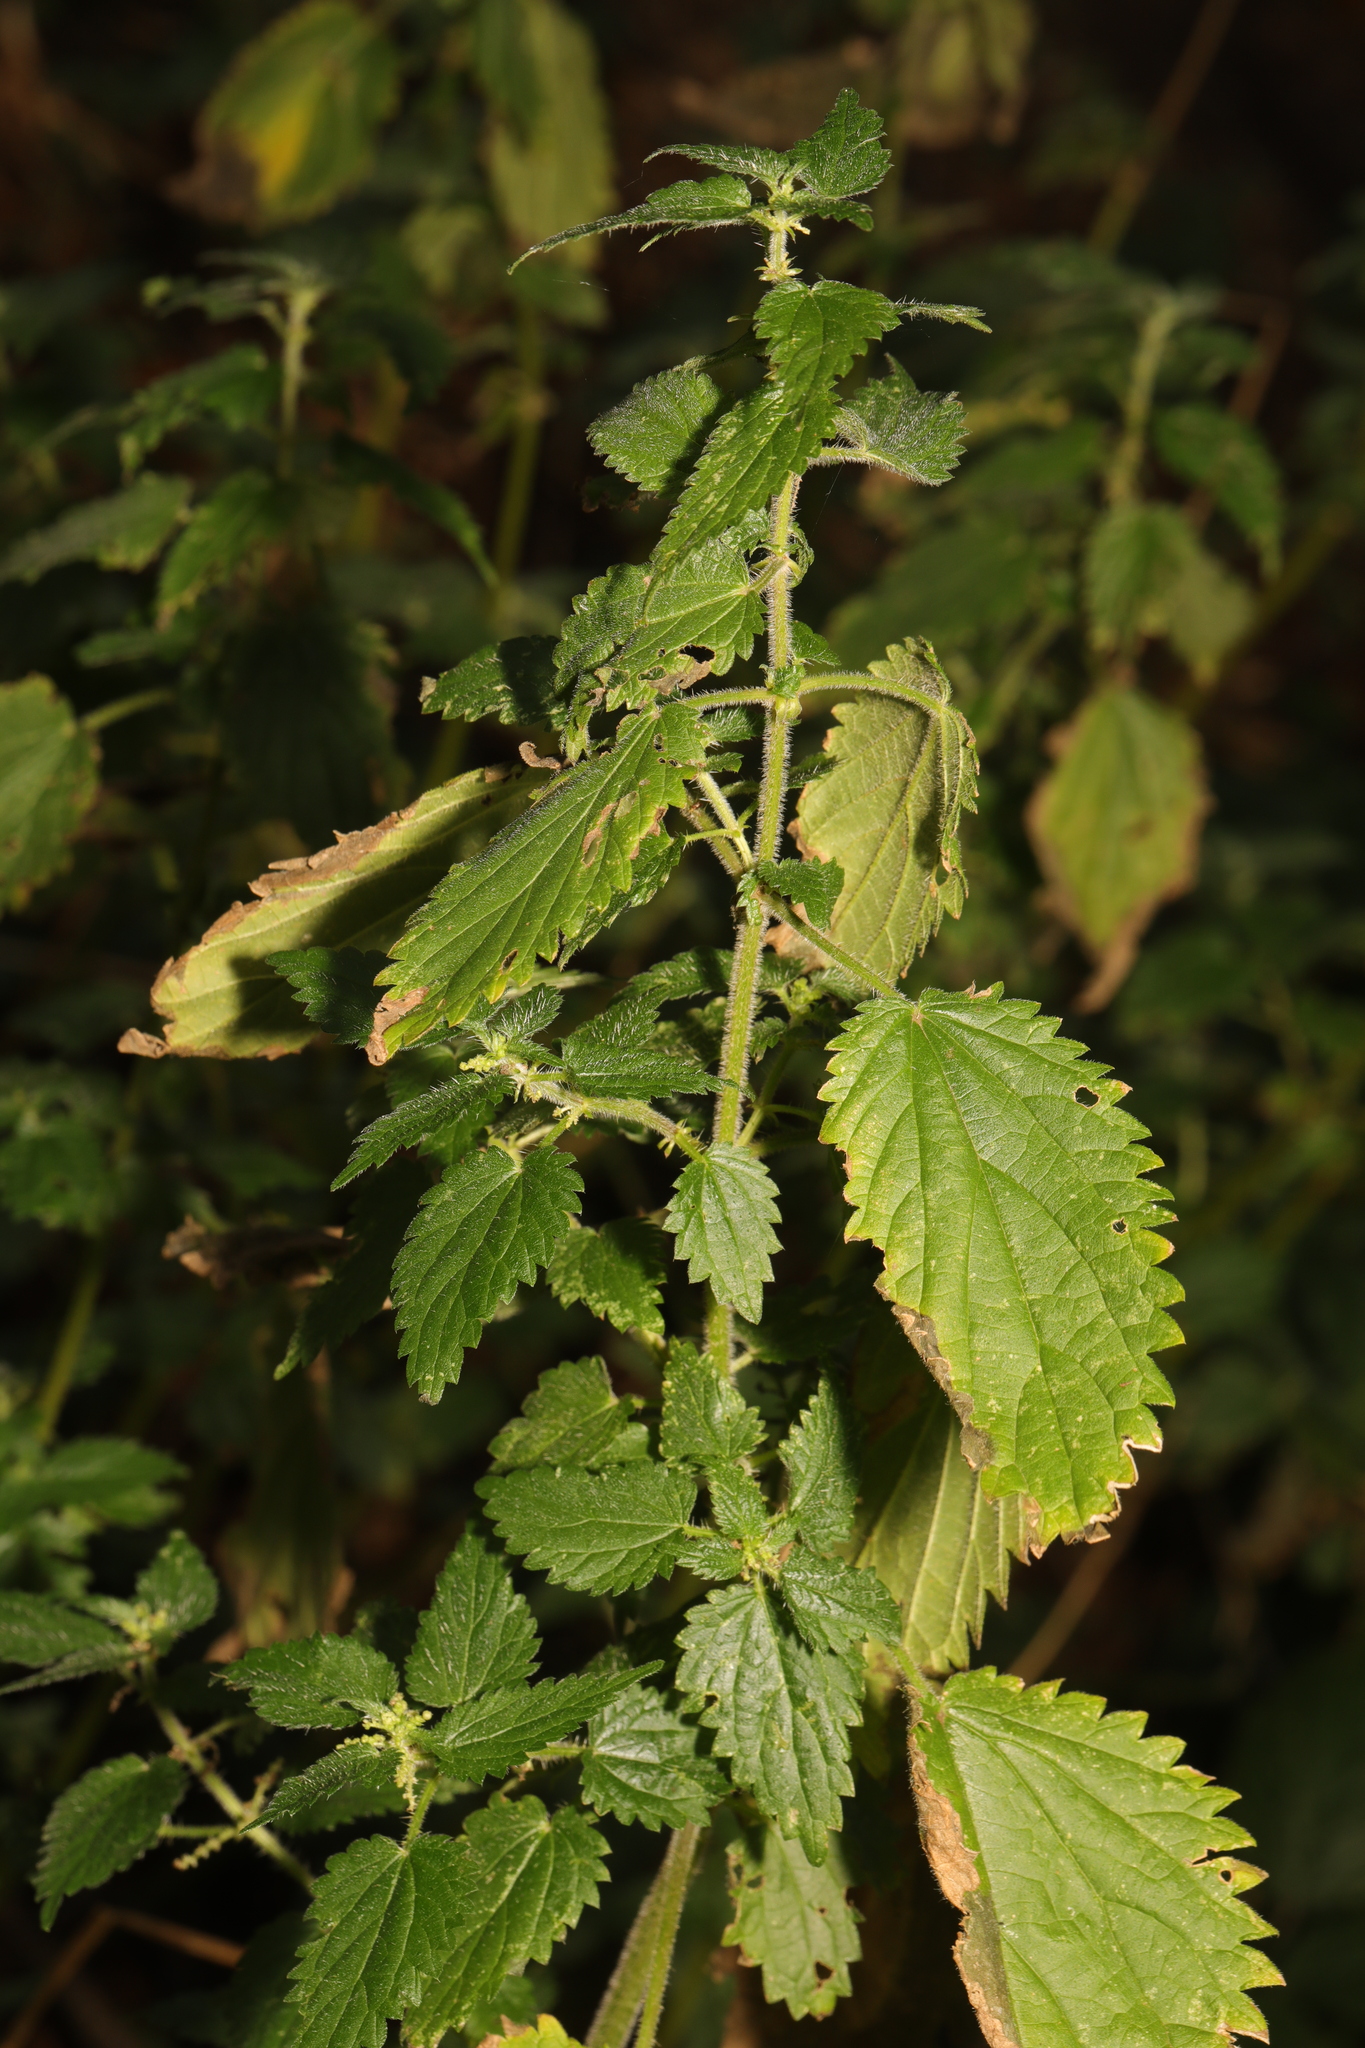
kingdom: Plantae
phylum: Tracheophyta
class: Magnoliopsida
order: Rosales
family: Urticaceae
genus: Urtica
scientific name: Urtica dioica
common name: Common nettle
